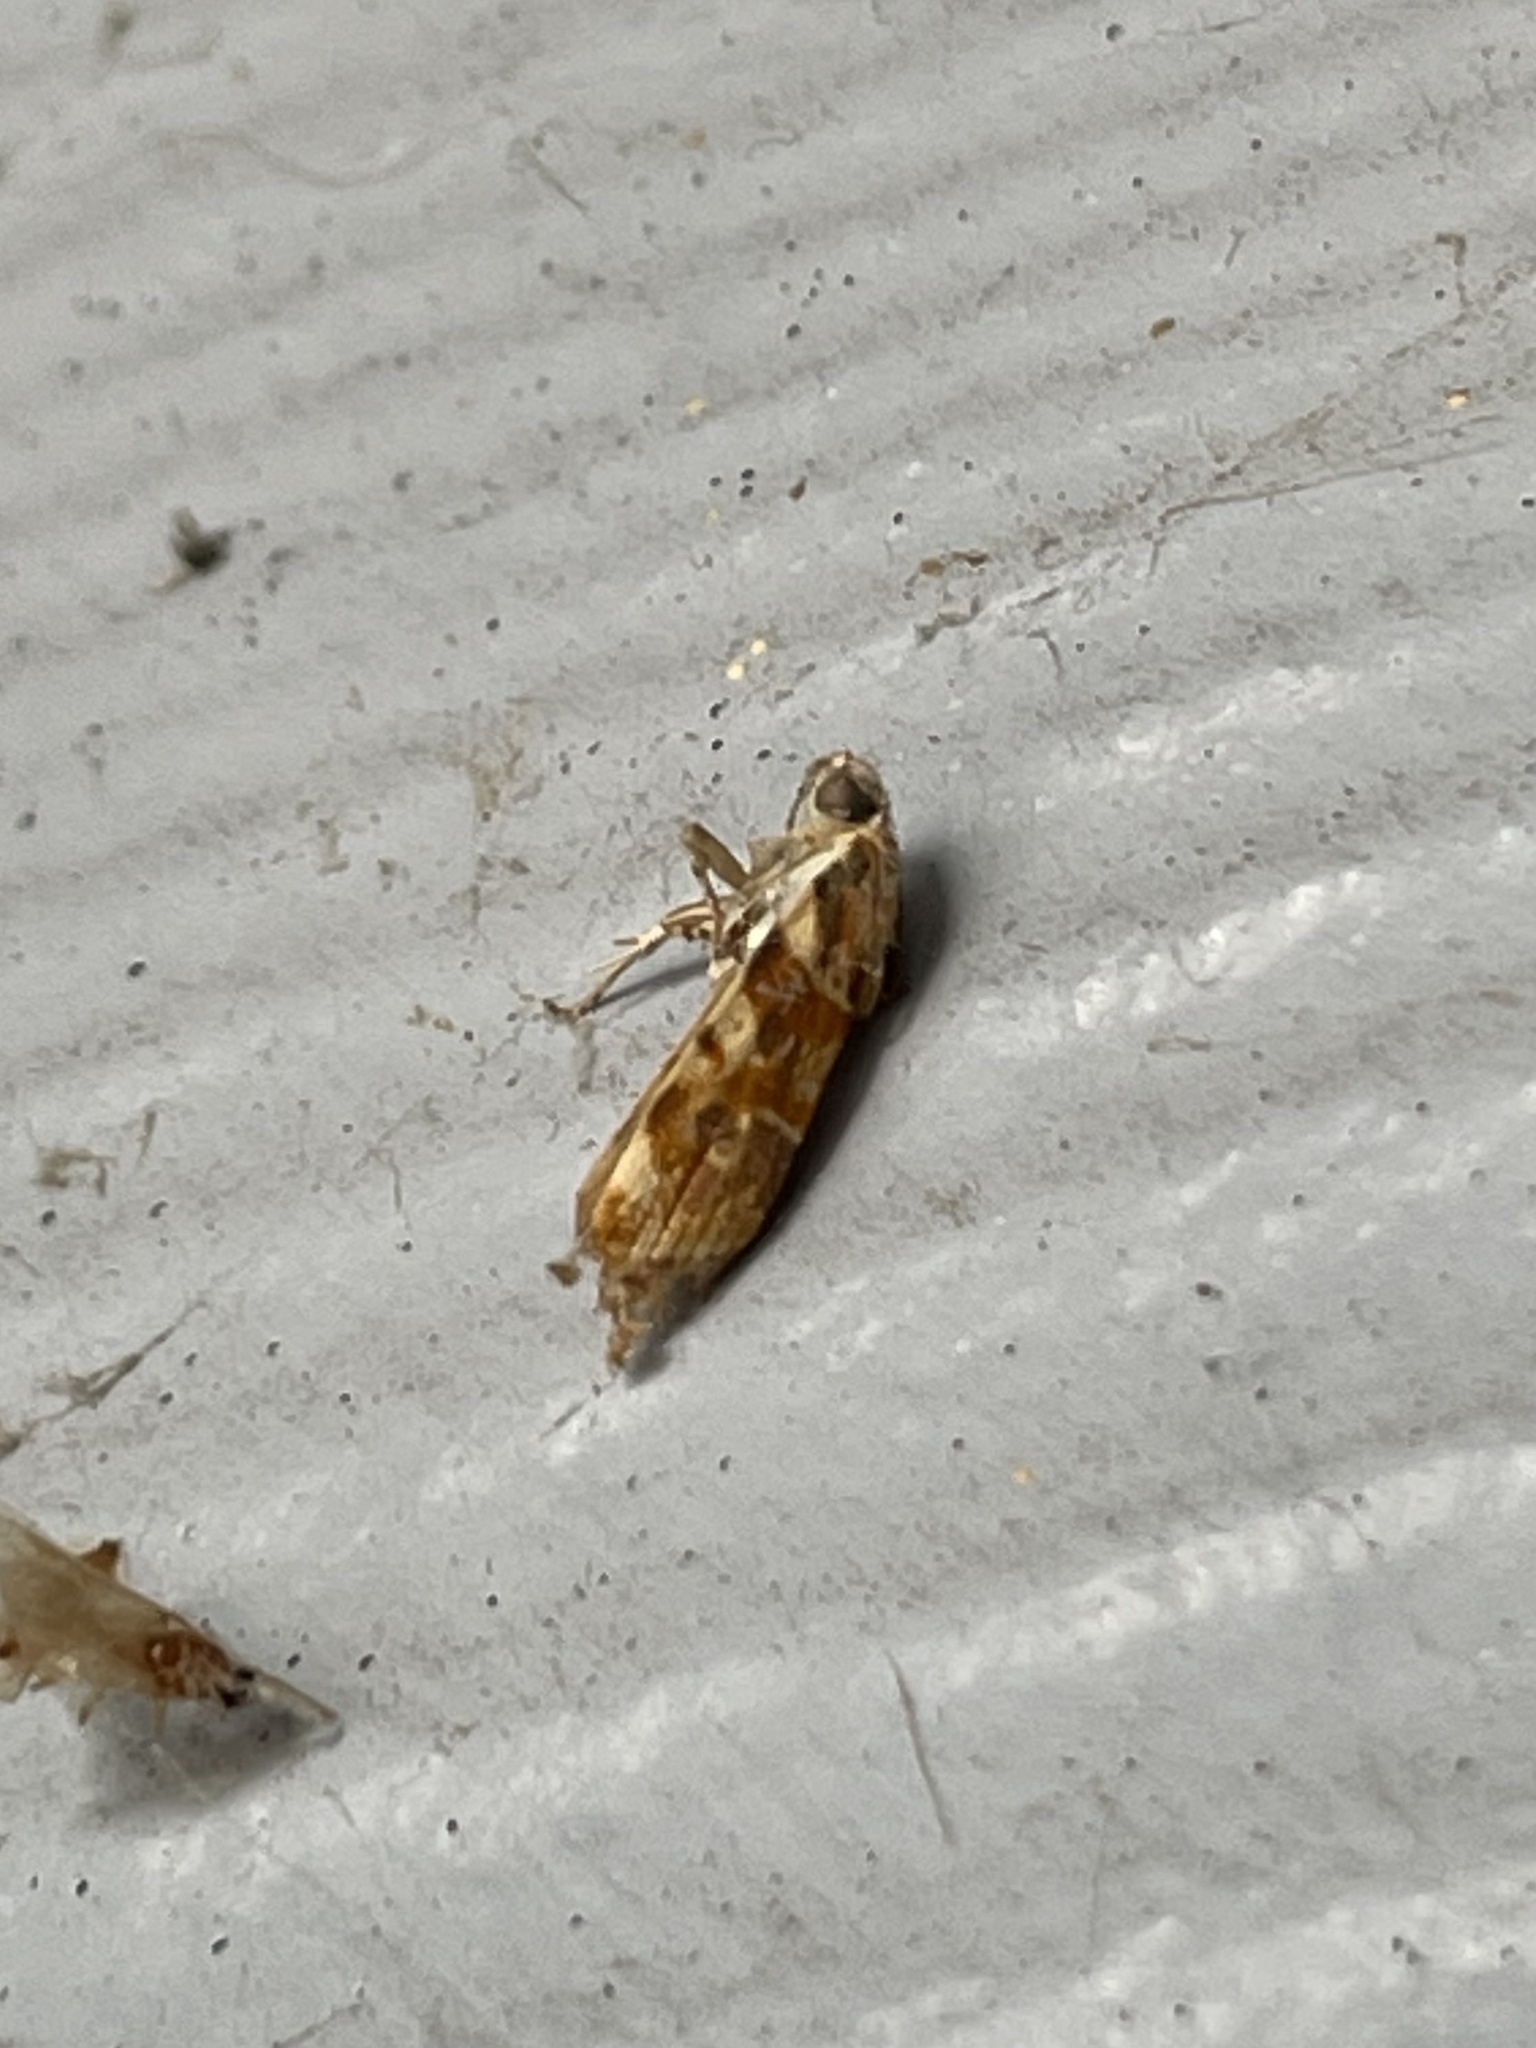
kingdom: Animalia
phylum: Arthropoda
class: Insecta
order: Lepidoptera
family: Noctuidae
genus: Spragueia
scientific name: Spragueia jaguaralis
